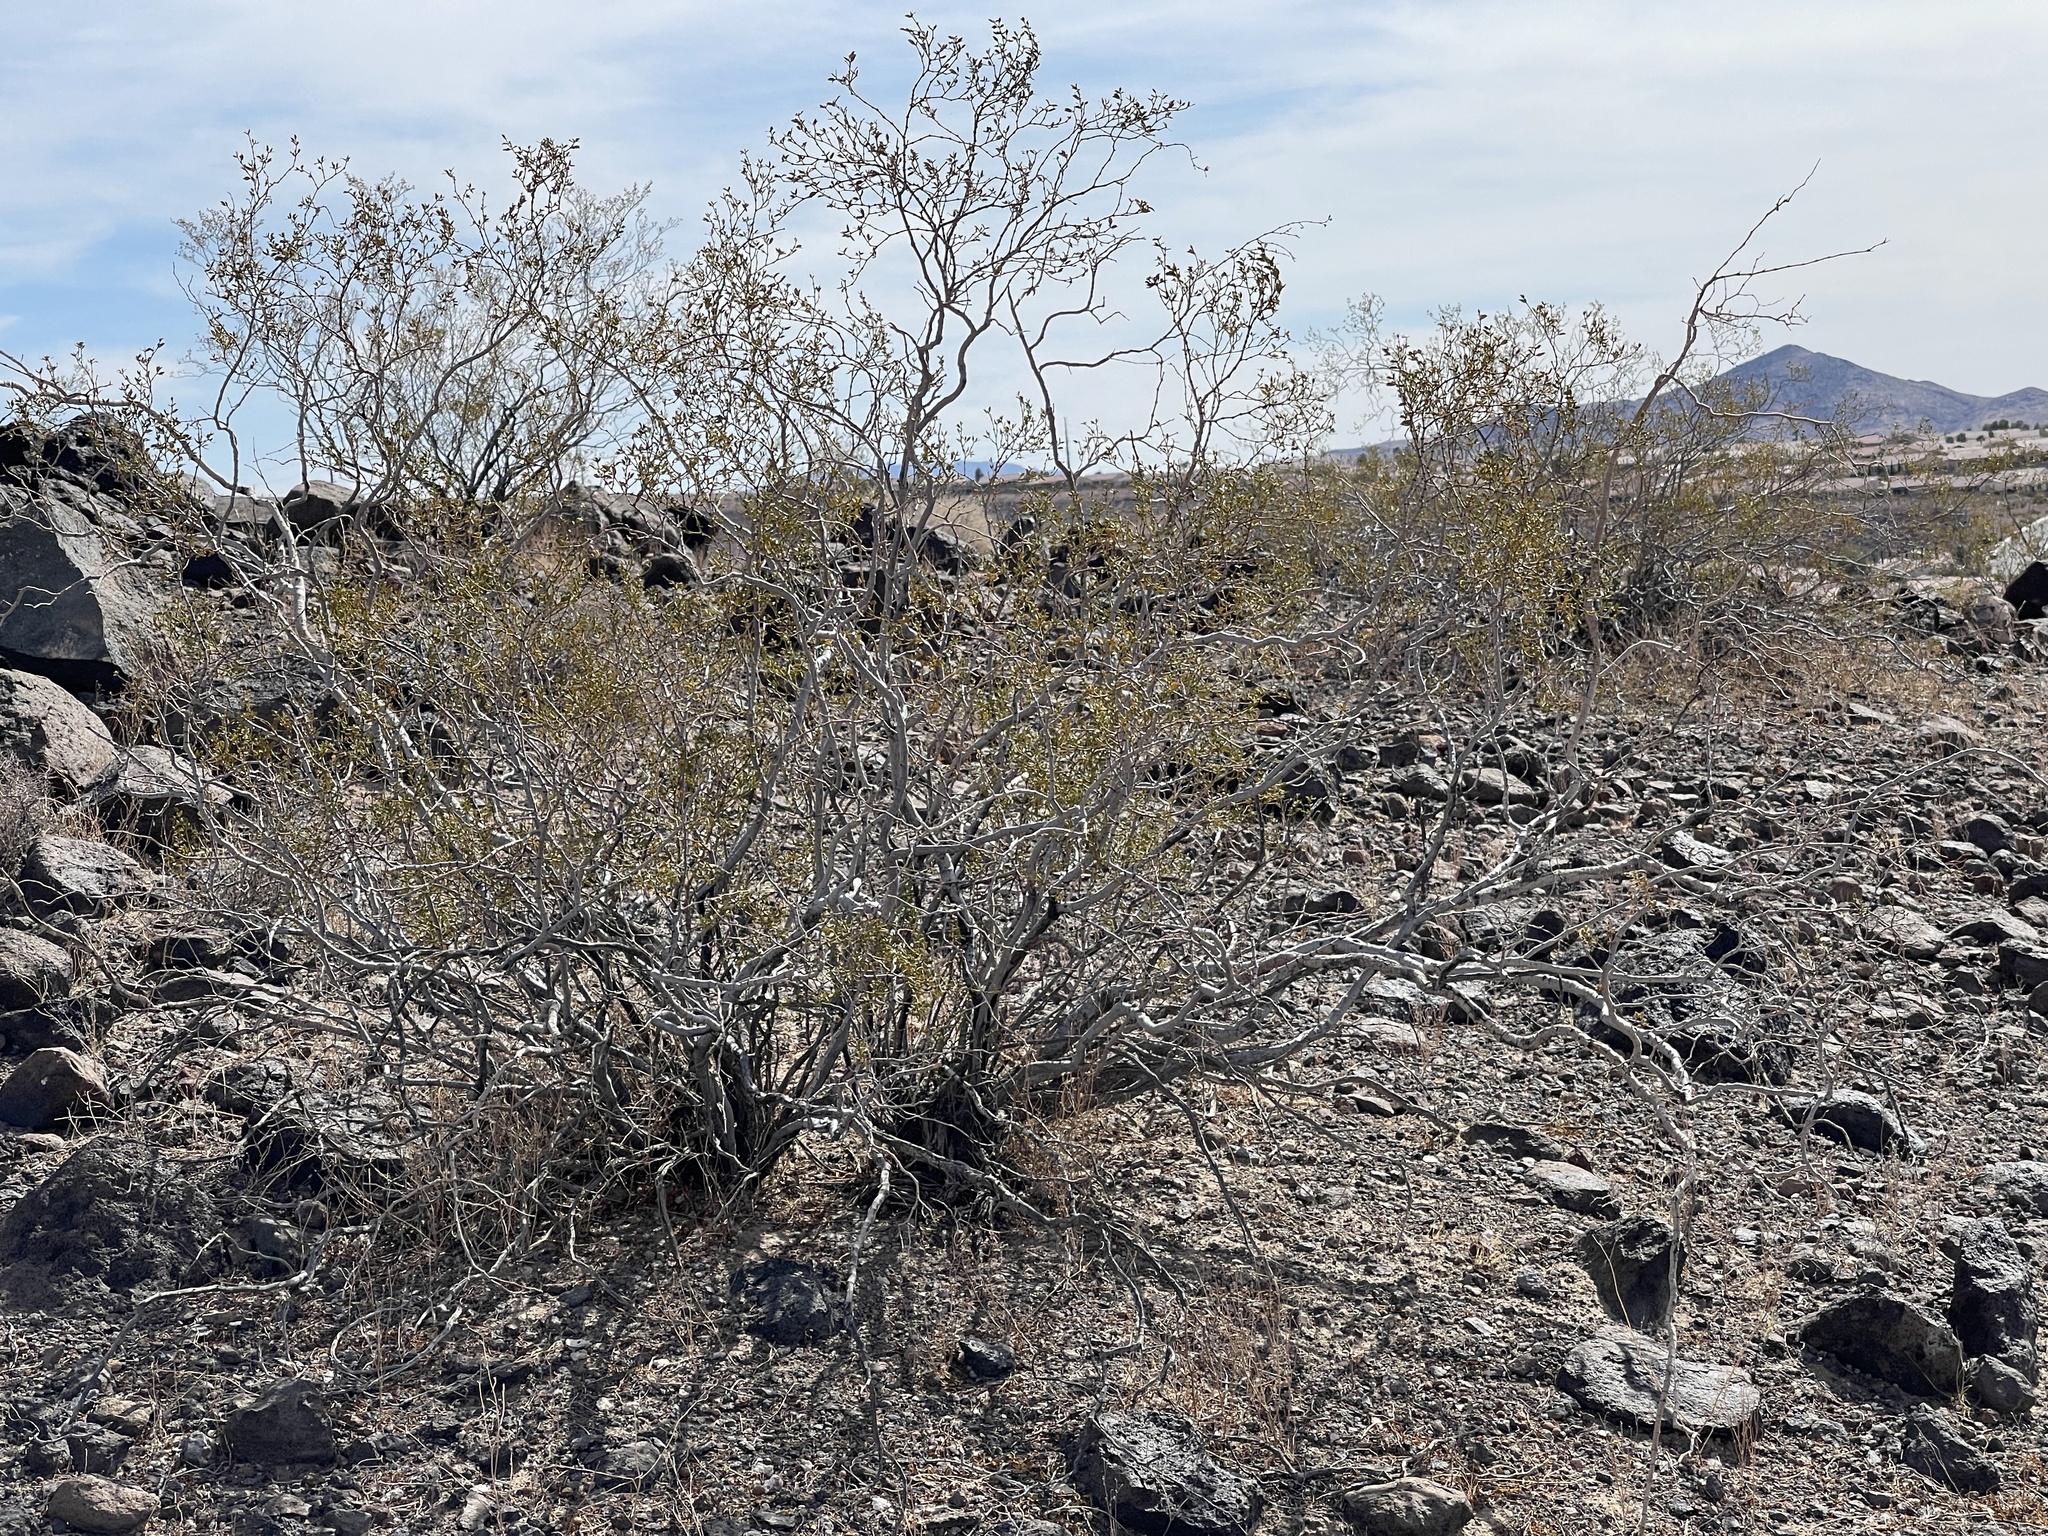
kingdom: Plantae
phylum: Tracheophyta
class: Magnoliopsida
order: Zygophyllales
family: Zygophyllaceae
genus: Larrea
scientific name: Larrea tridentata
